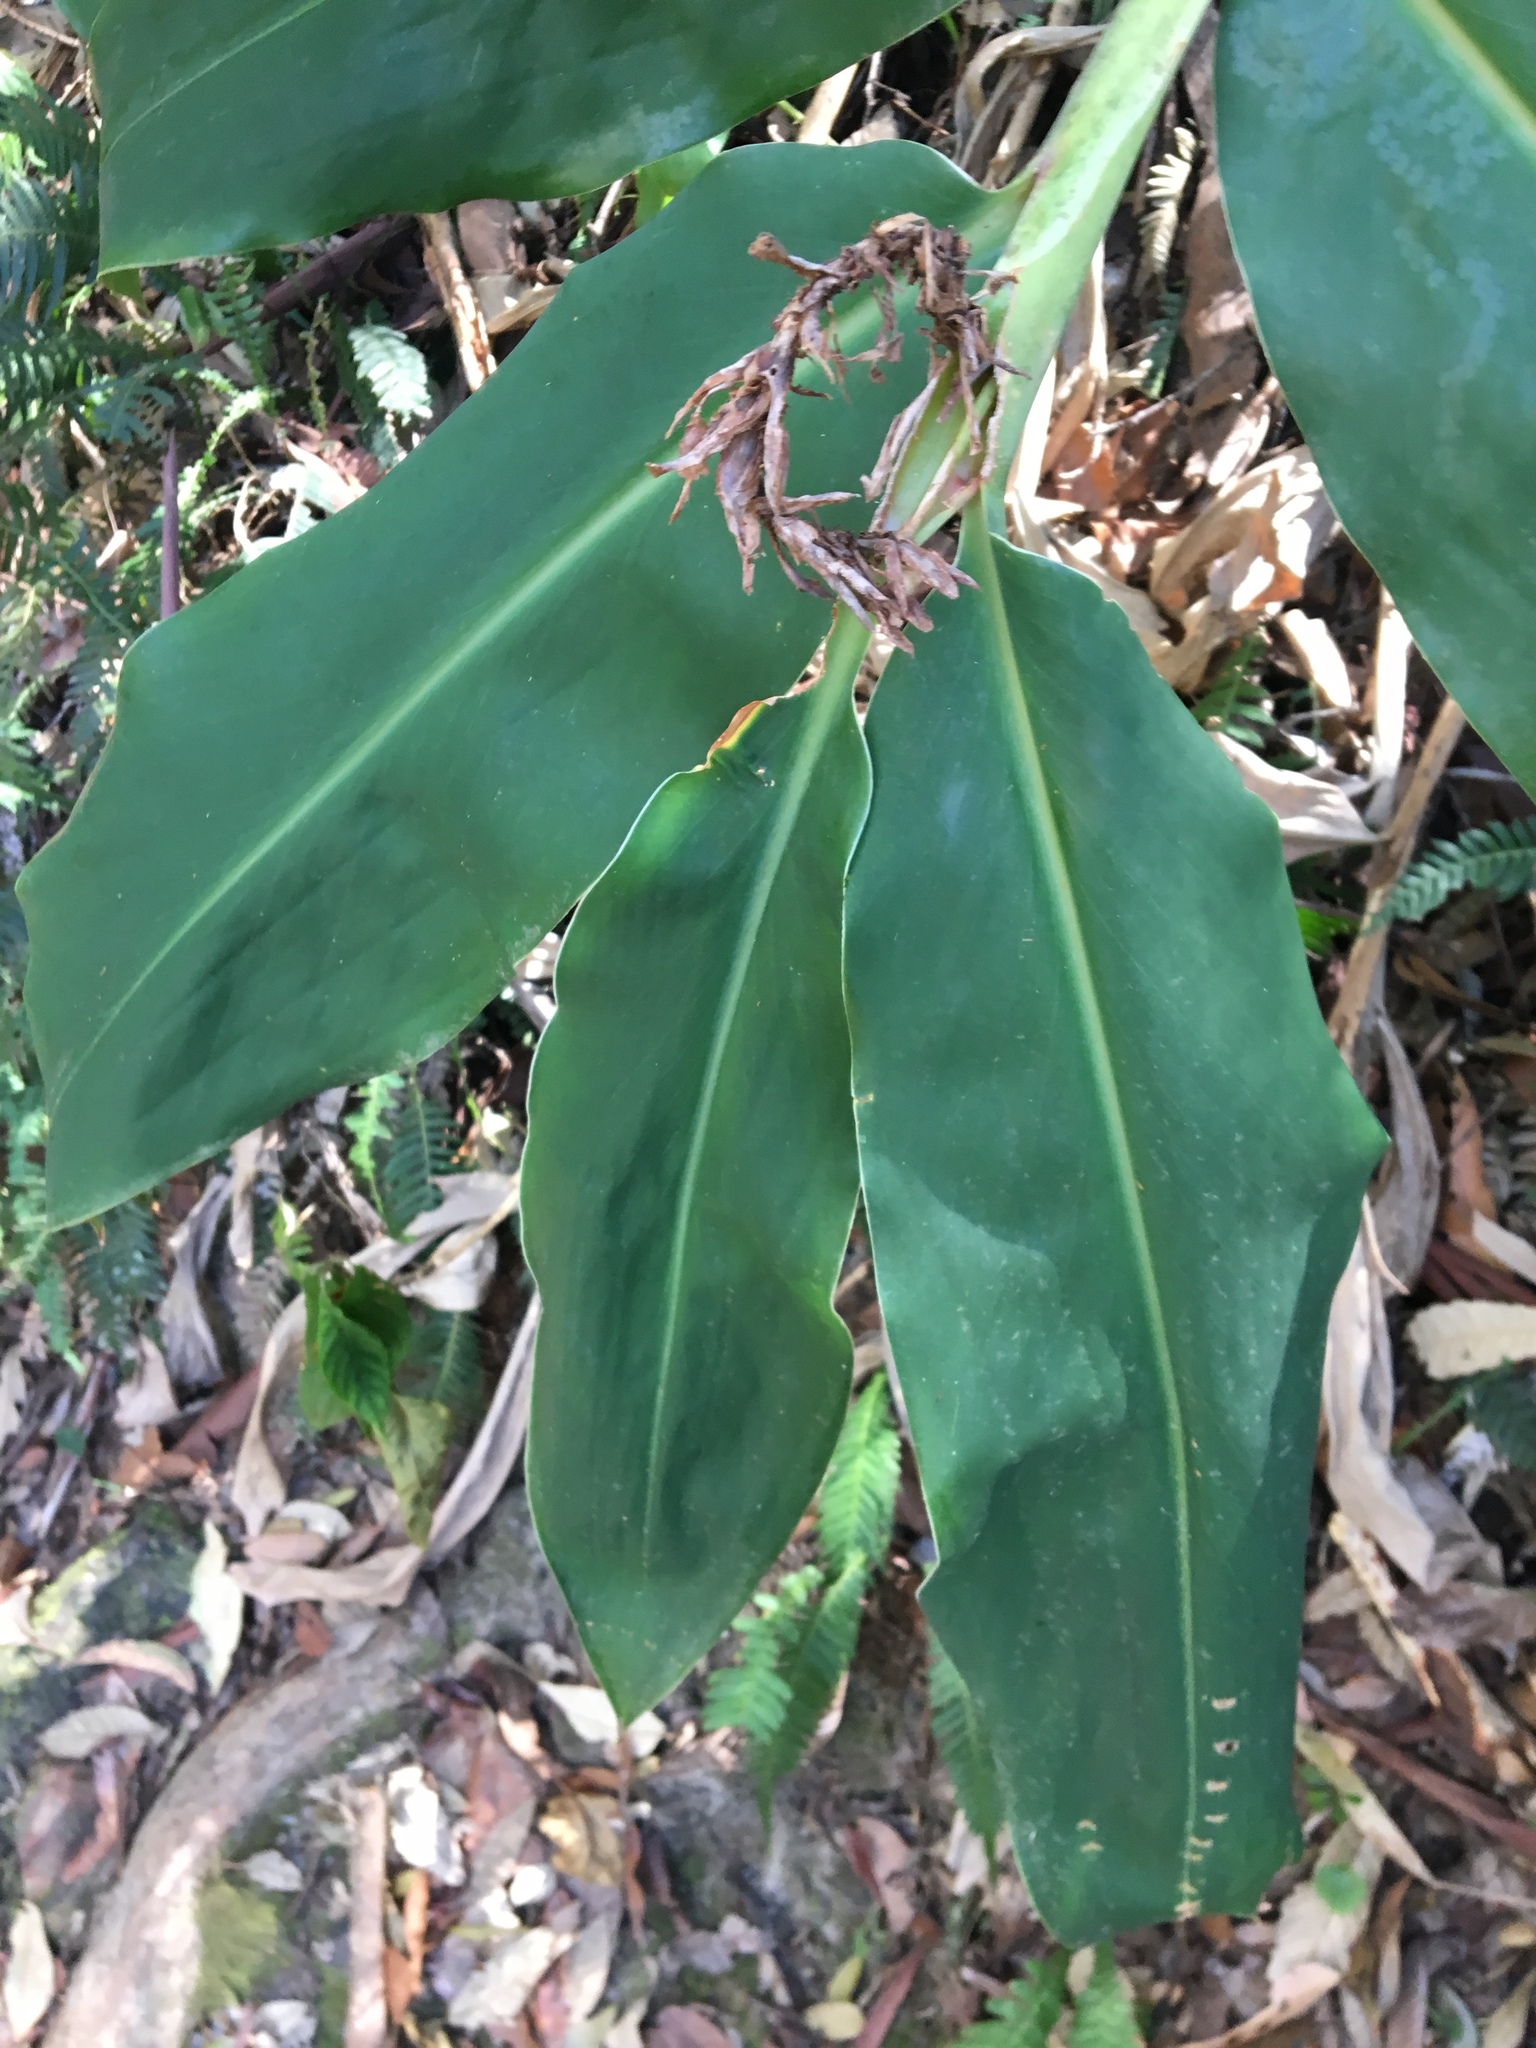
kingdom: Plantae
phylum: Tracheophyta
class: Liliopsida
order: Zingiberales
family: Zingiberaceae
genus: Hedychium
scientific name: Hedychium gardnerianum
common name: Himalayan ginger
